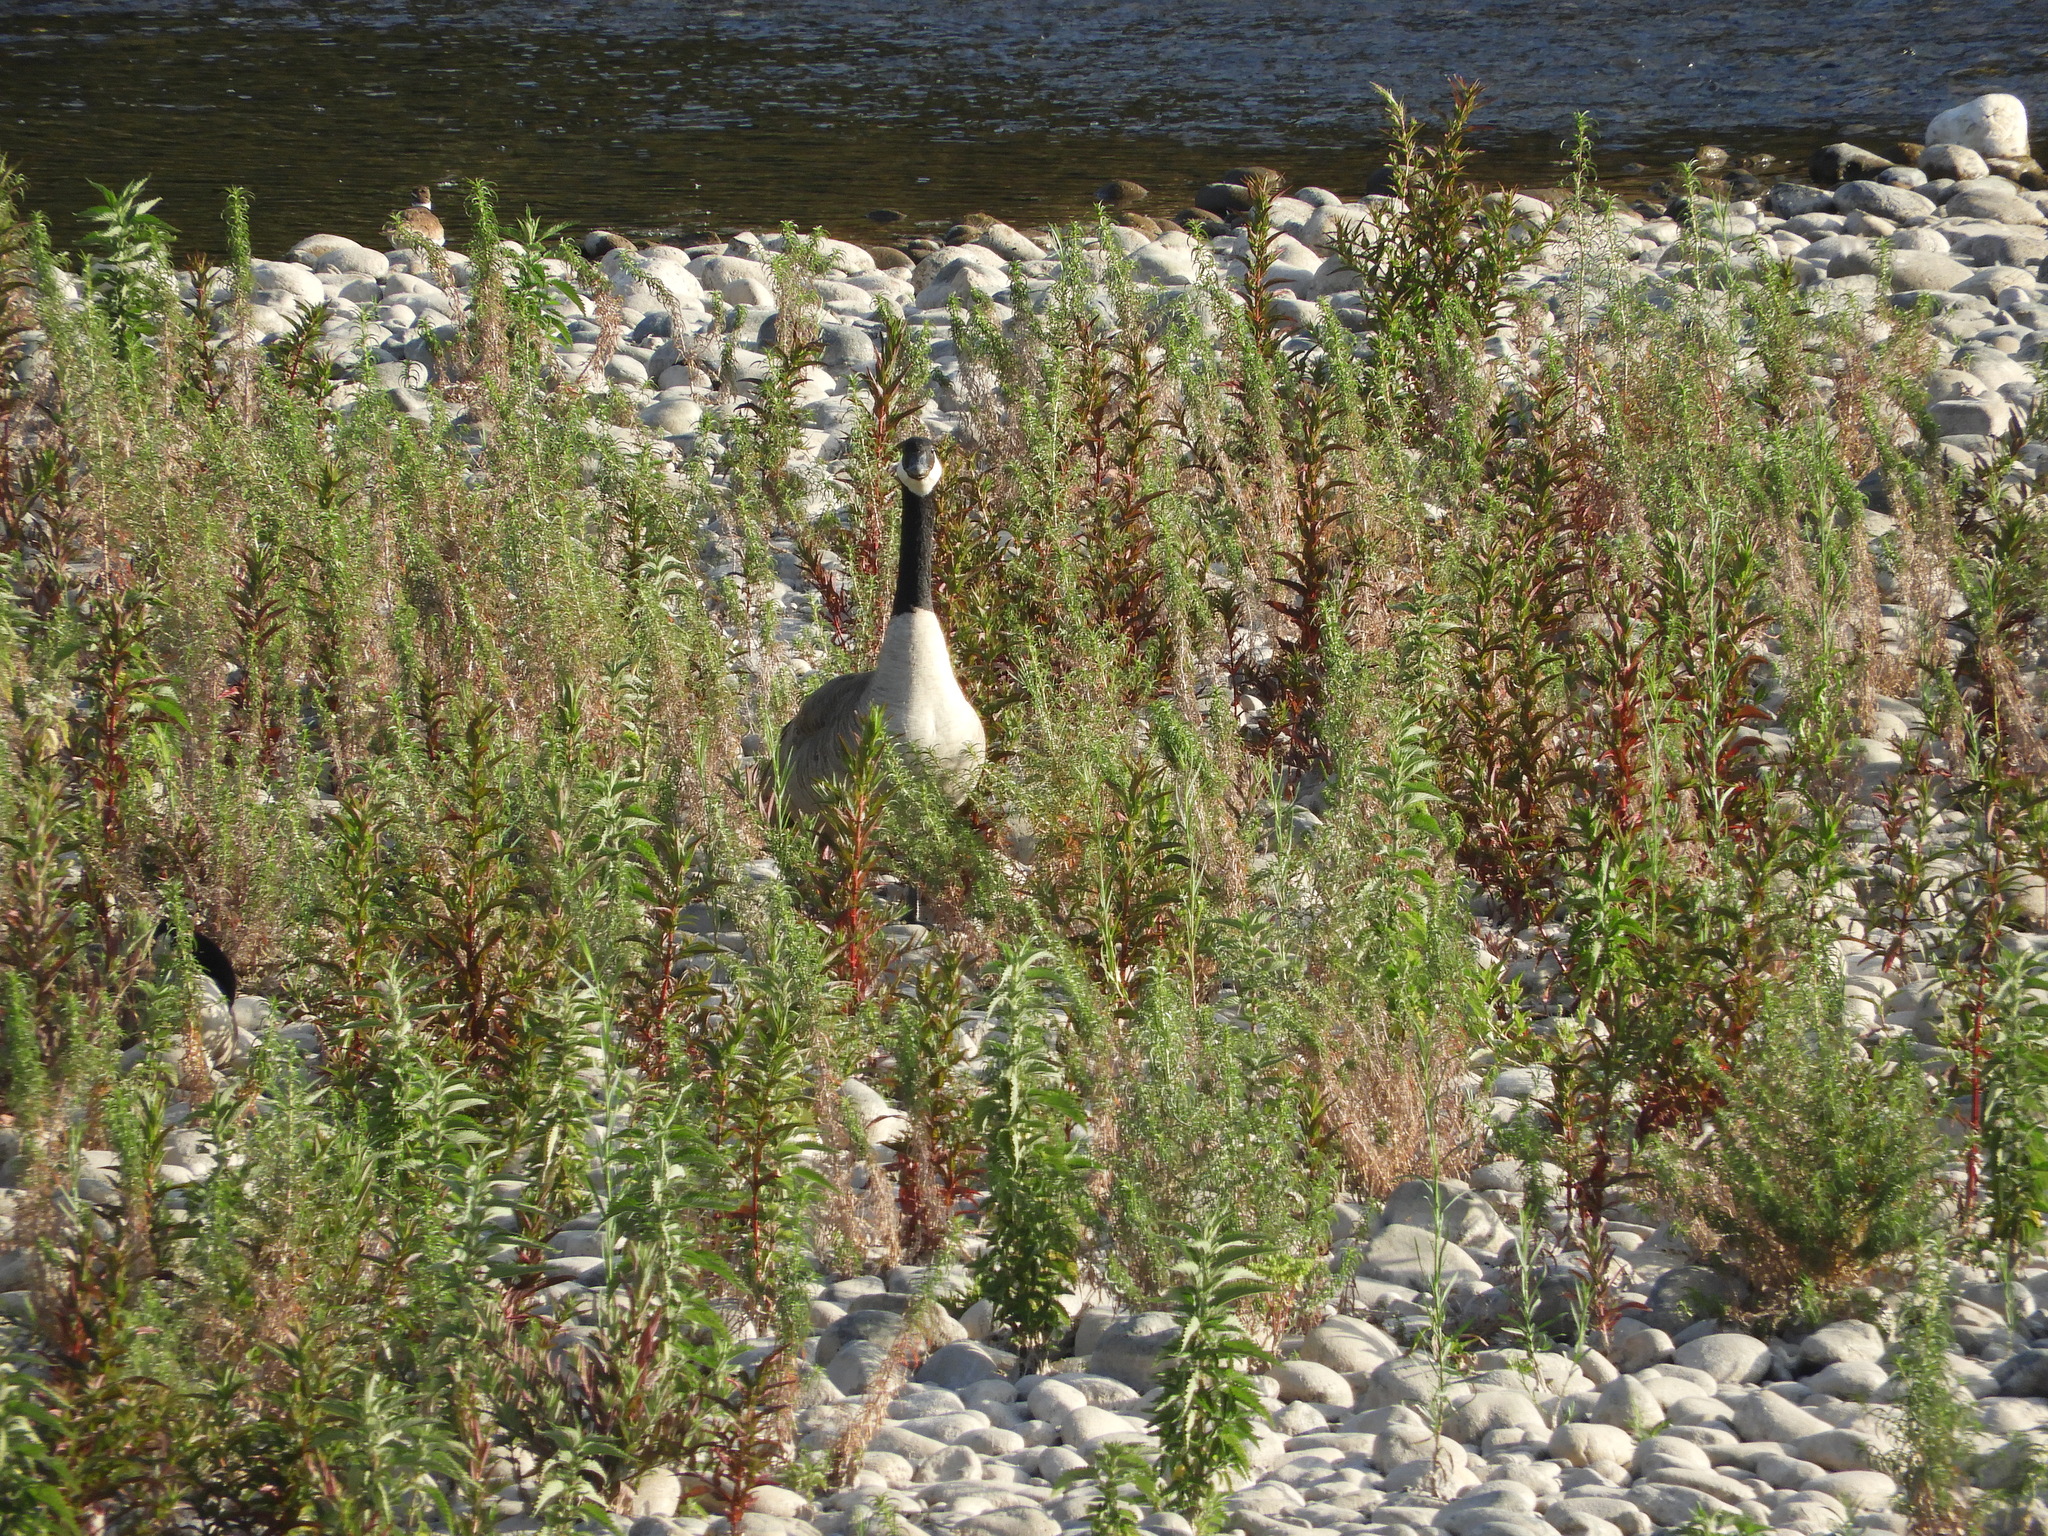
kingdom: Animalia
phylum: Chordata
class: Aves
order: Anseriformes
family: Anatidae
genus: Branta
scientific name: Branta canadensis
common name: Canada goose
